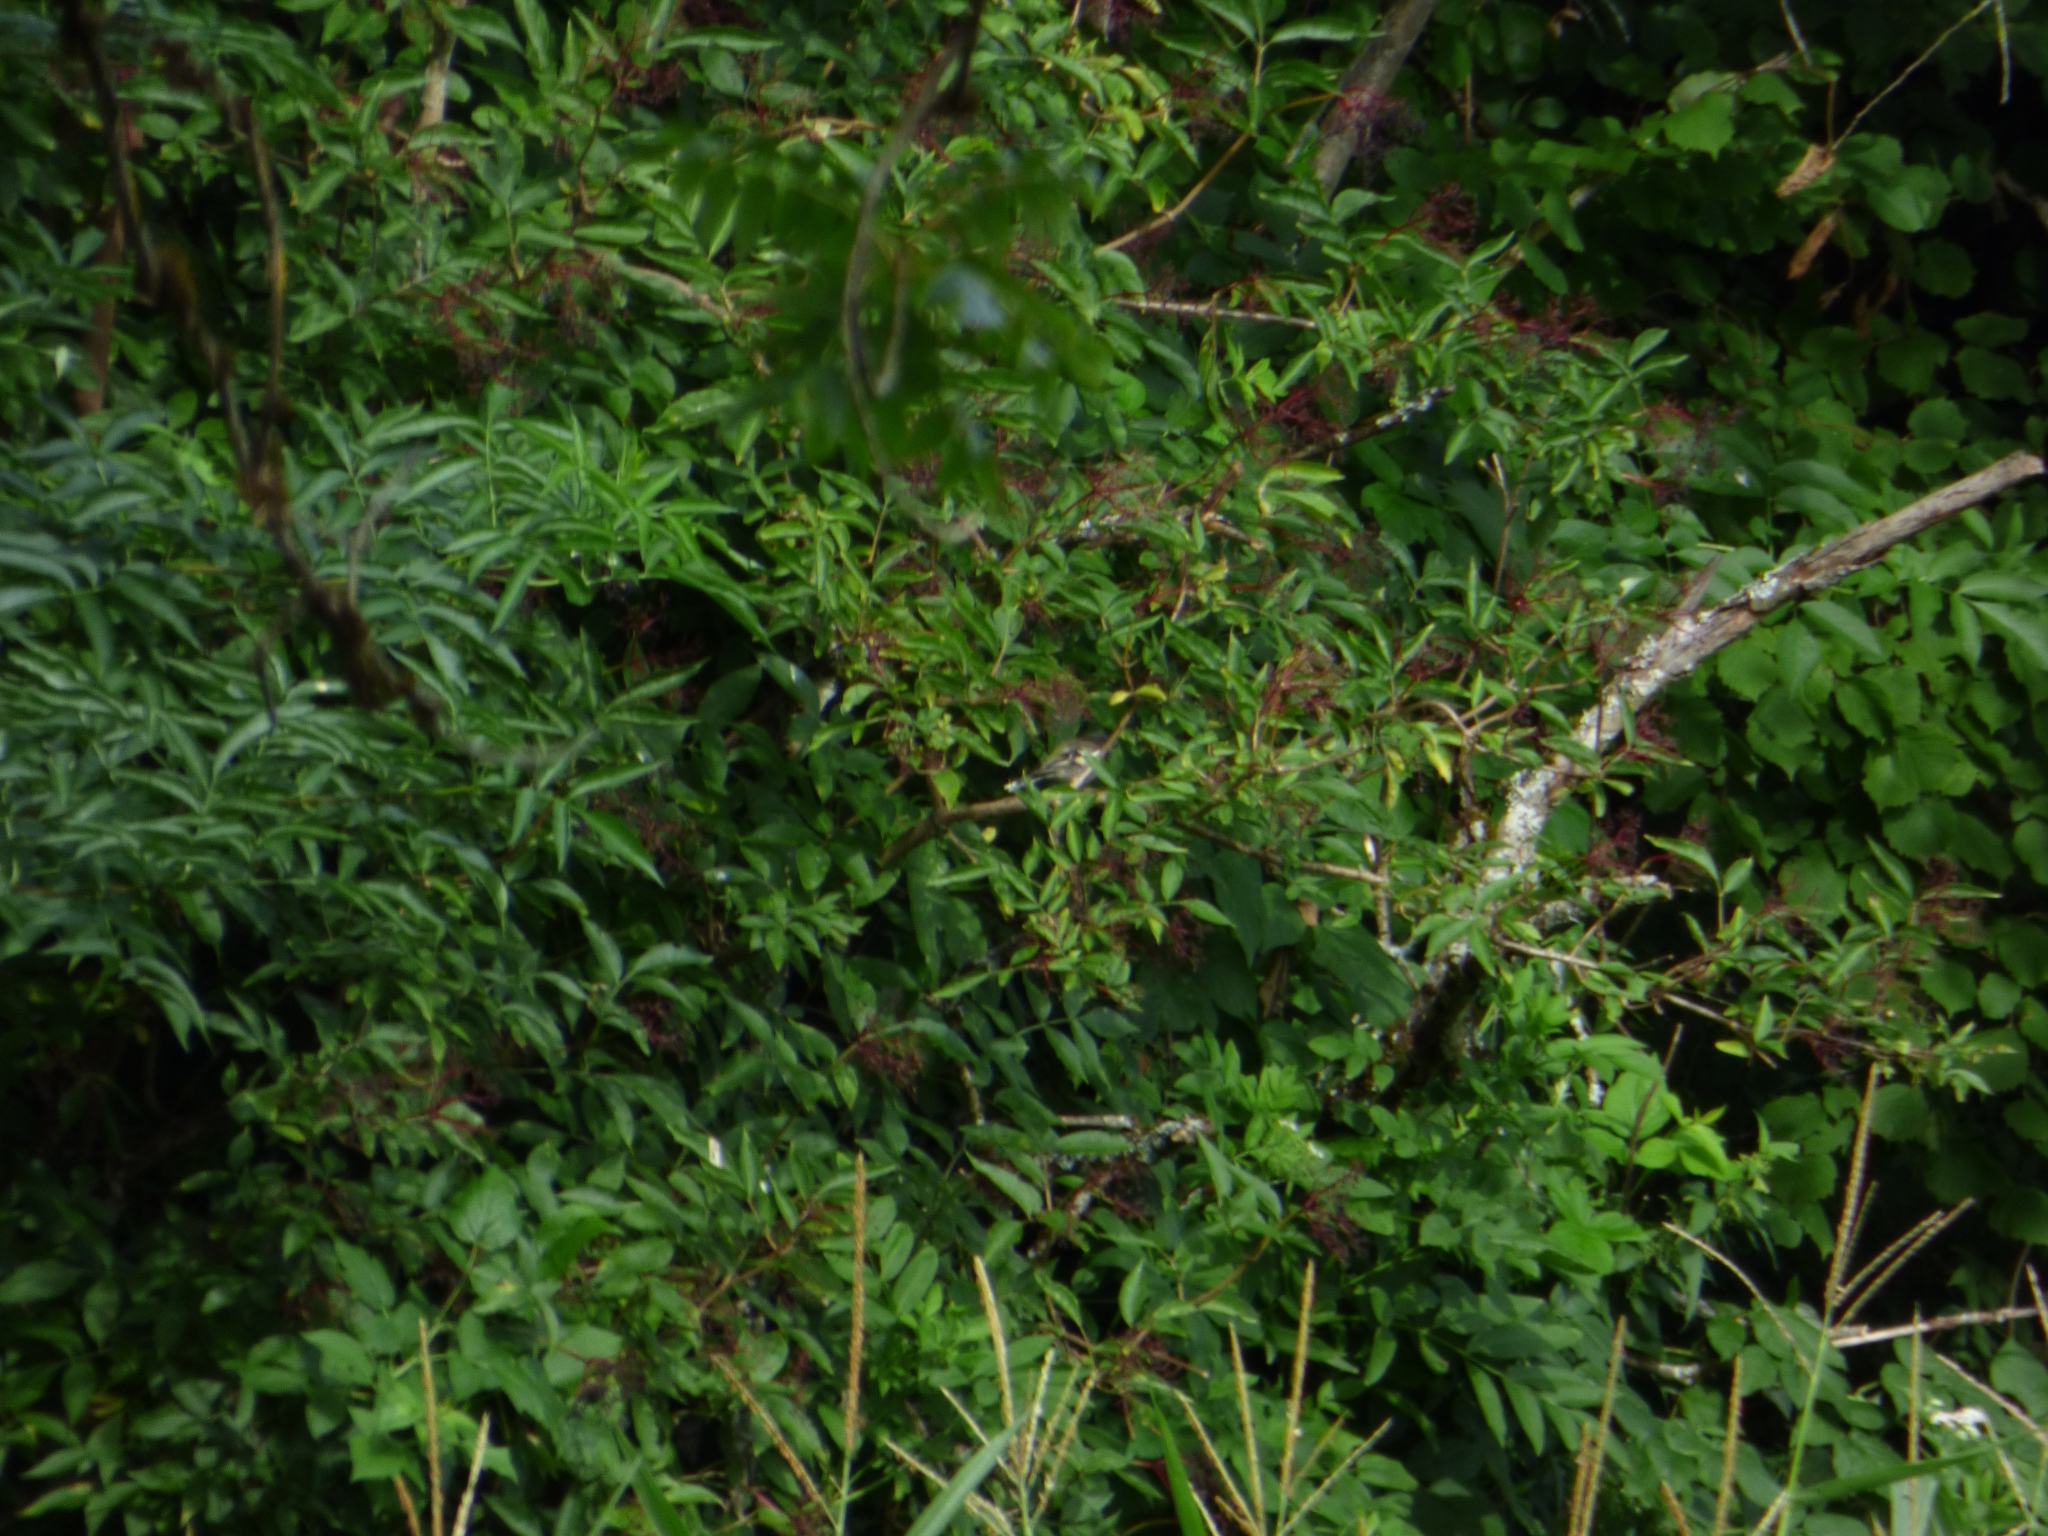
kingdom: Animalia
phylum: Chordata
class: Aves
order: Passeriformes
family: Fringillidae
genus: Carduelis
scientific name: Carduelis carduelis
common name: European goldfinch
